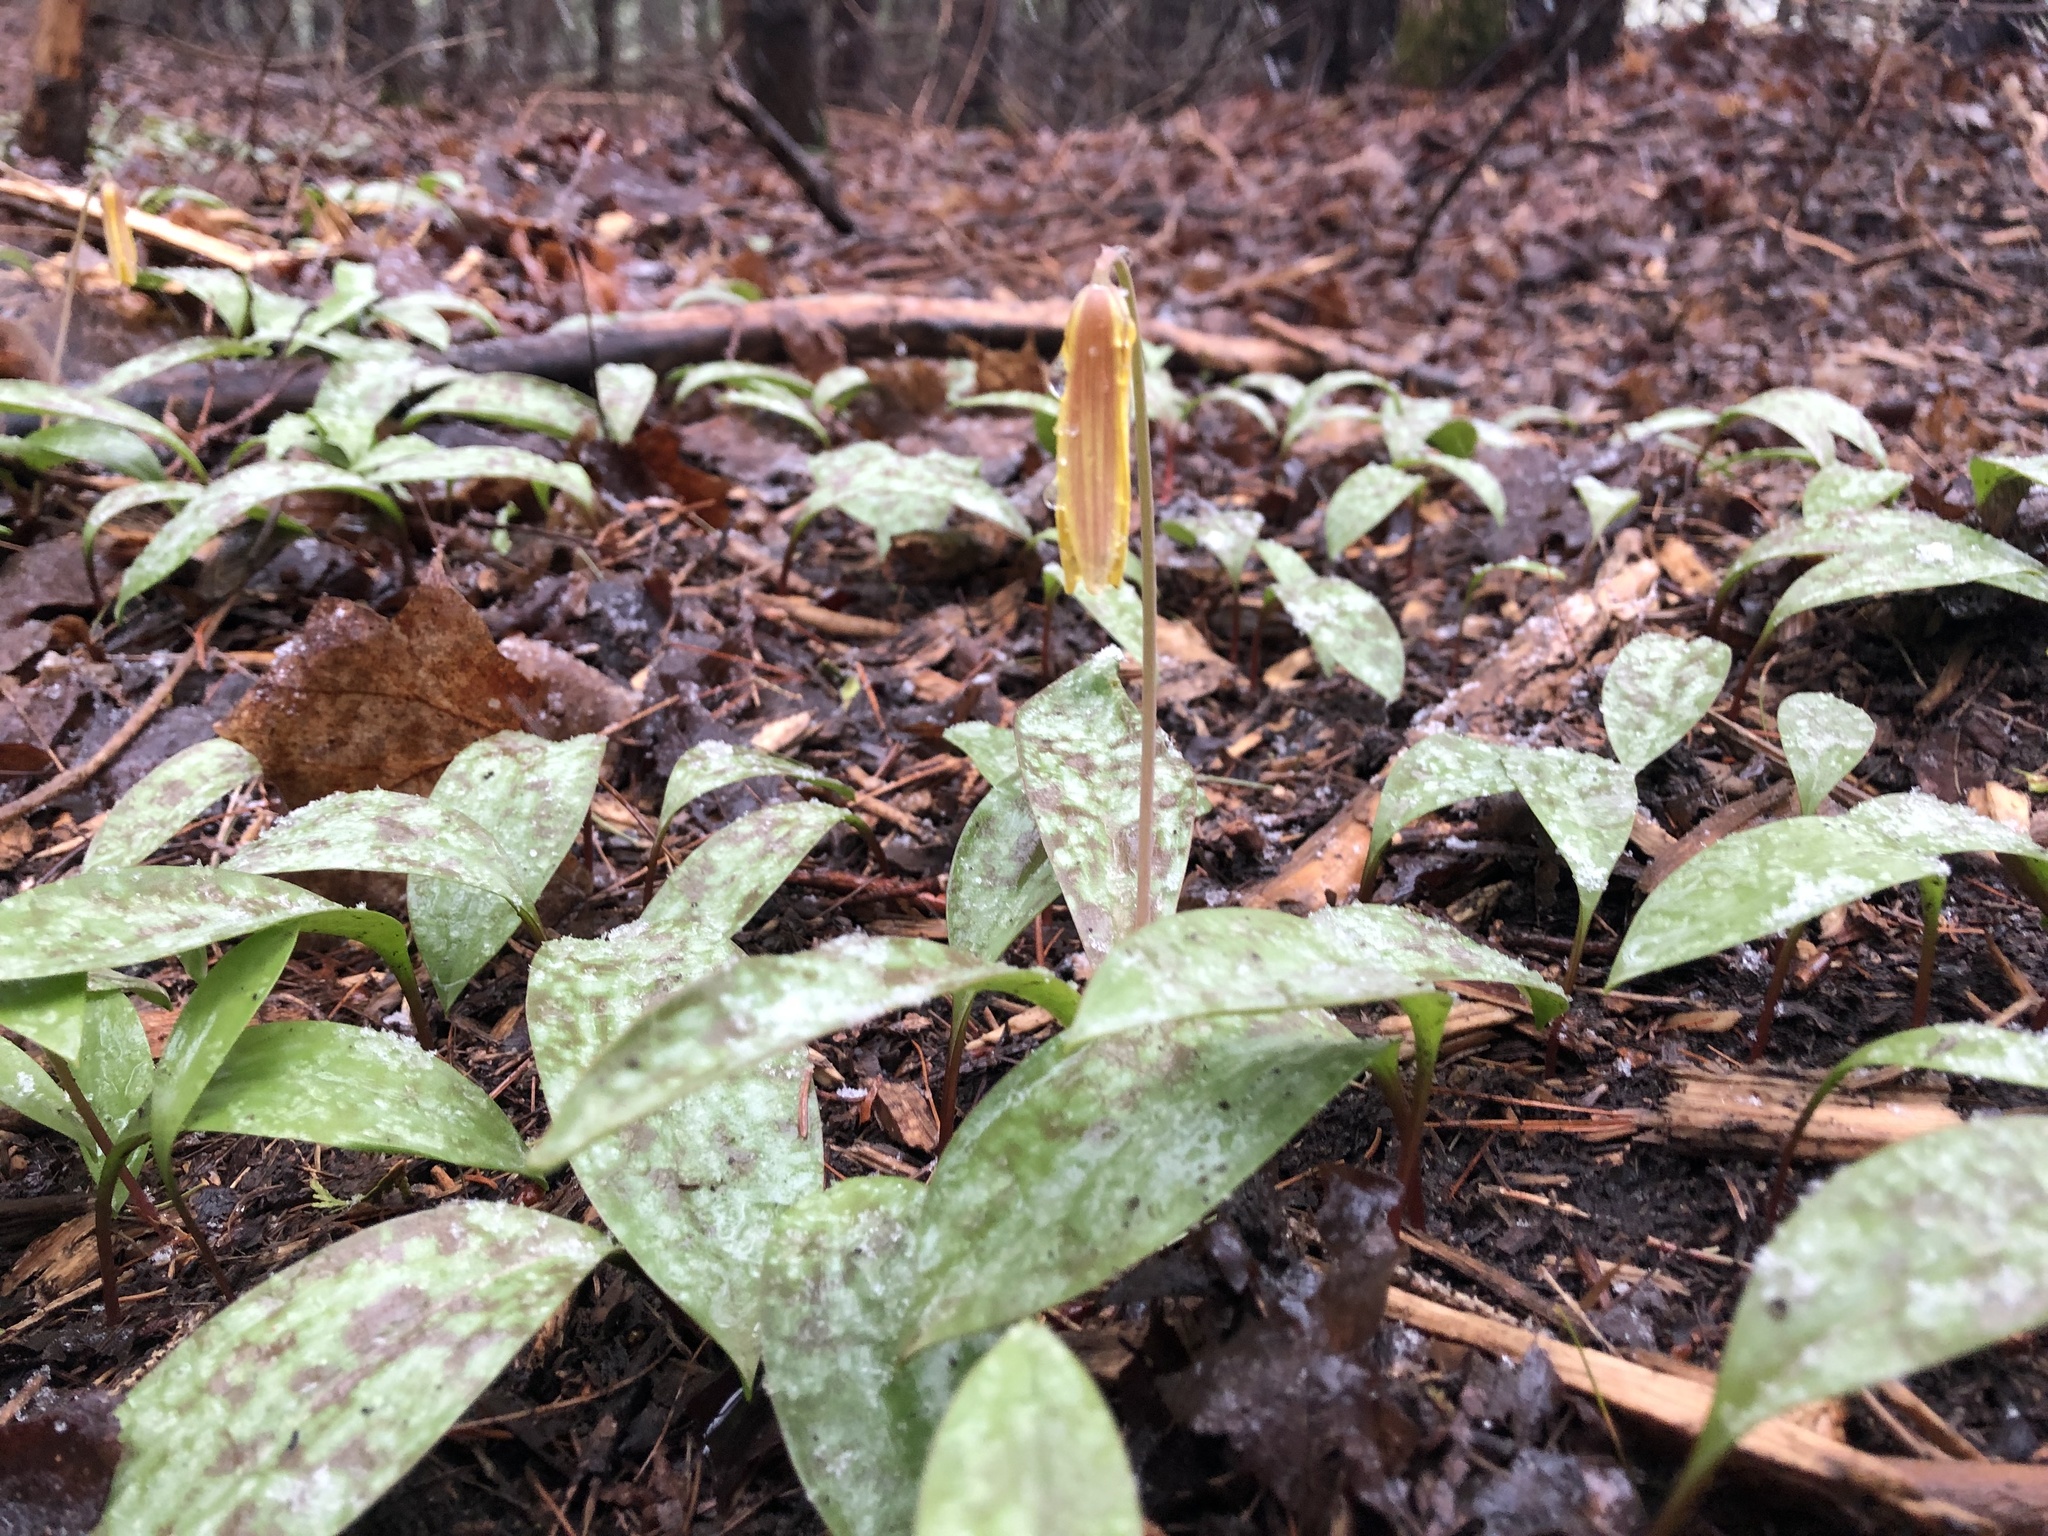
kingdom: Plantae
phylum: Tracheophyta
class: Liliopsida
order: Liliales
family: Liliaceae
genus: Erythronium
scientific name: Erythronium americanum
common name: Yellow adder's-tongue
